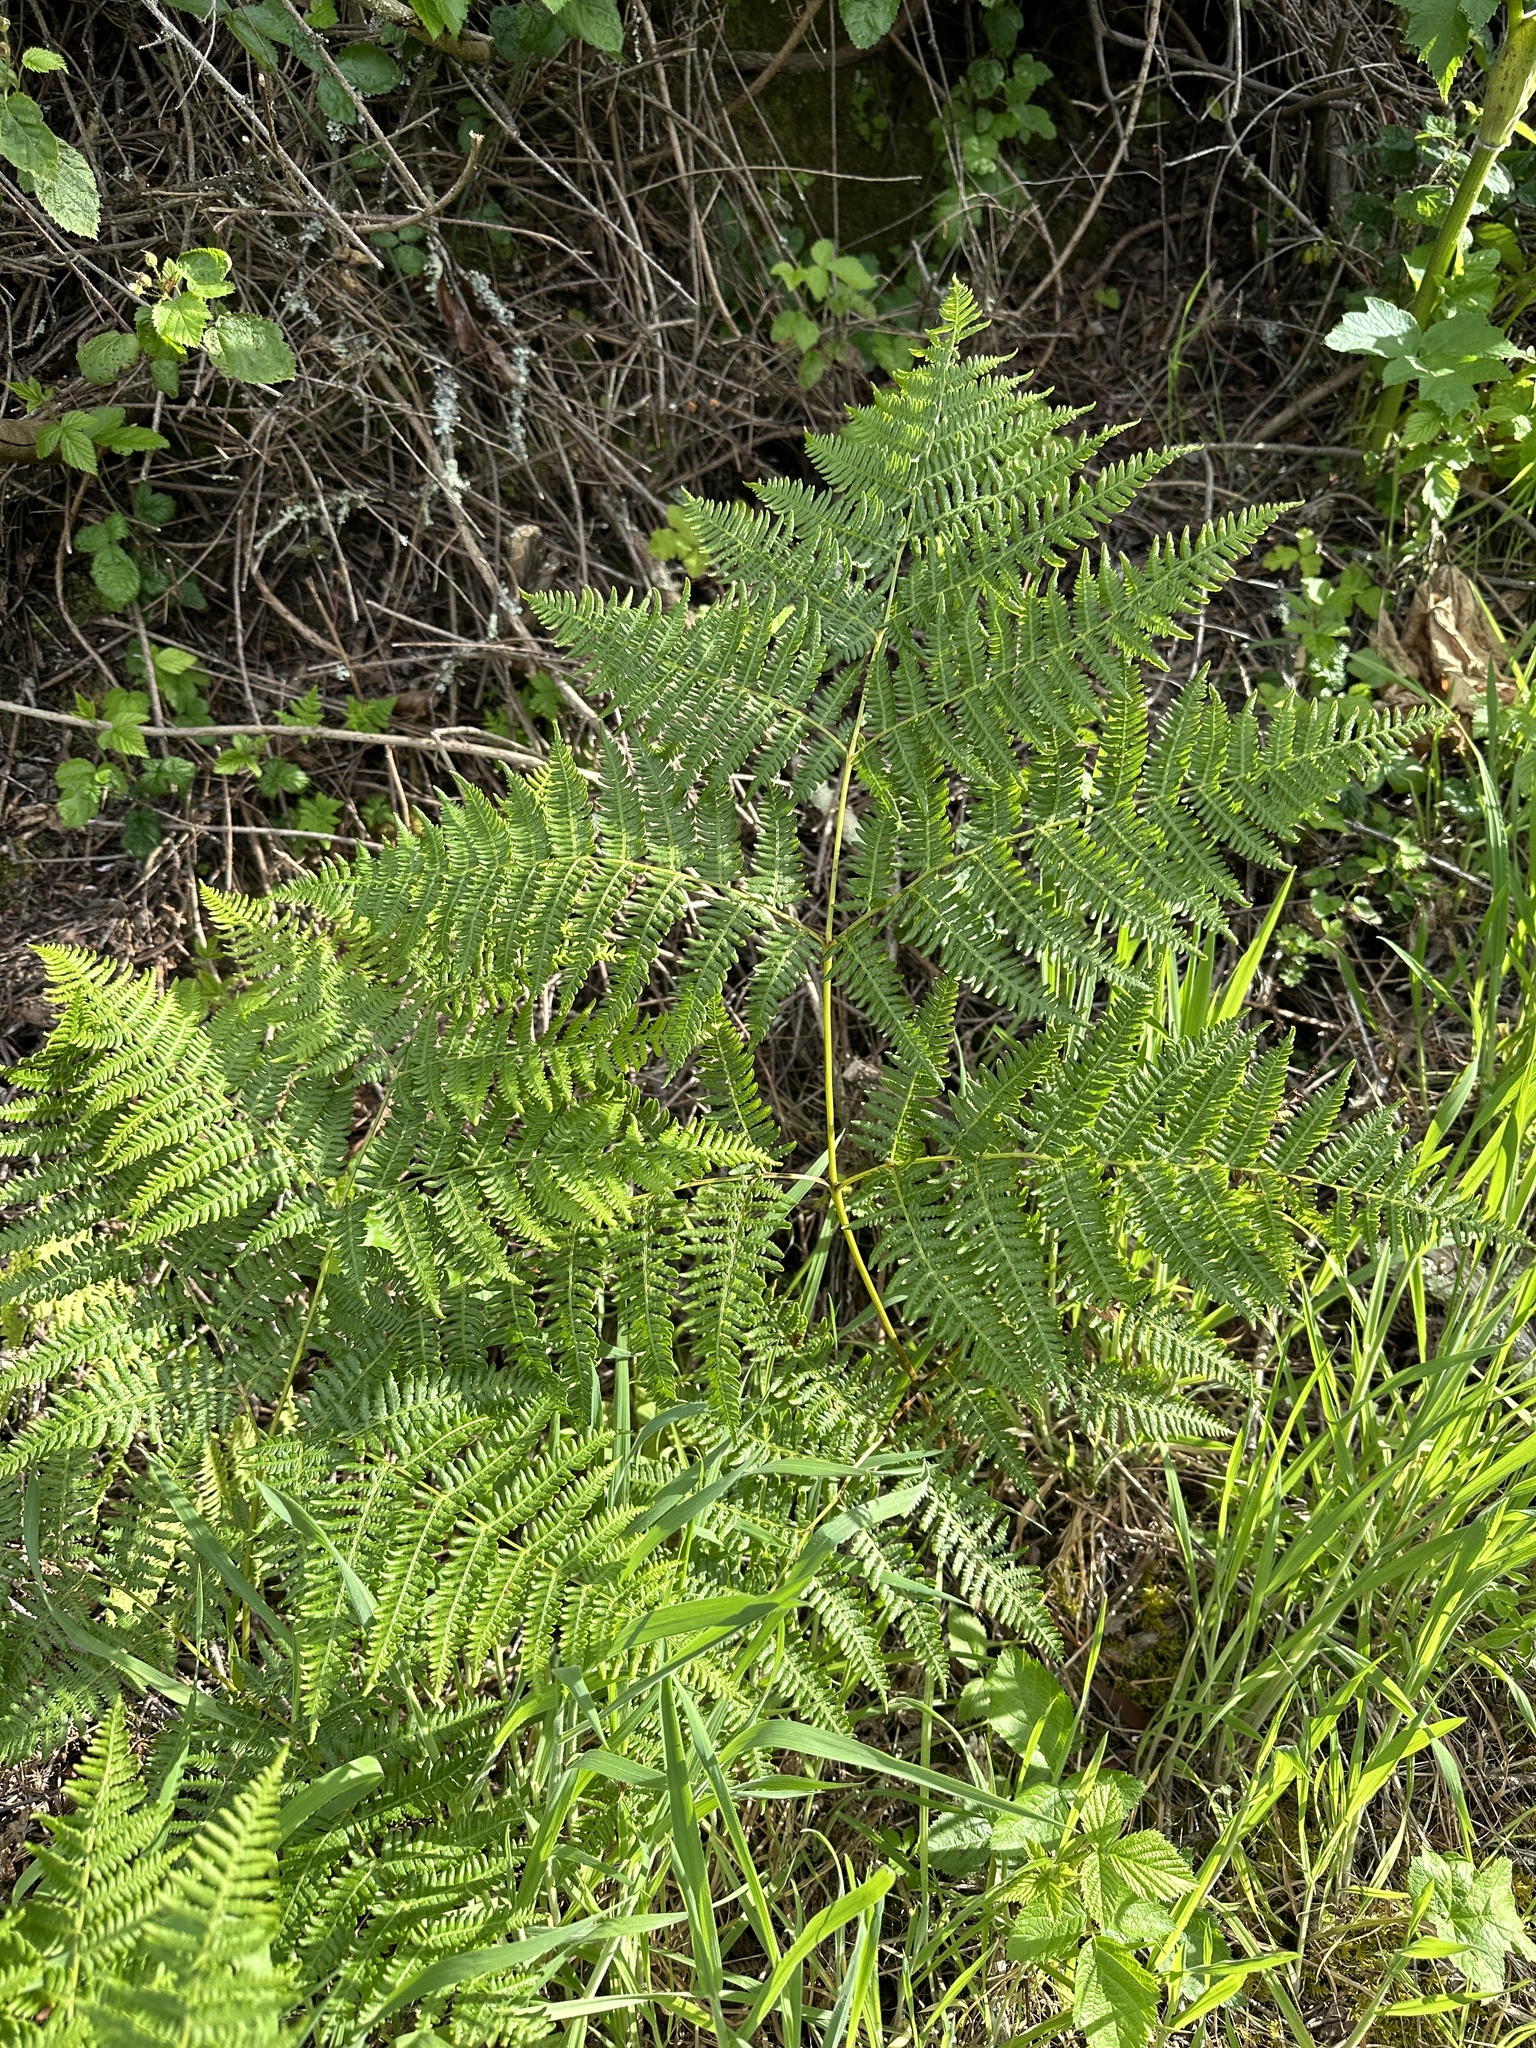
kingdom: Plantae
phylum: Tracheophyta
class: Polypodiopsida
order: Polypodiales
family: Dennstaedtiaceae
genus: Pteridium
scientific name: Pteridium aquilinum
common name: Bracken
